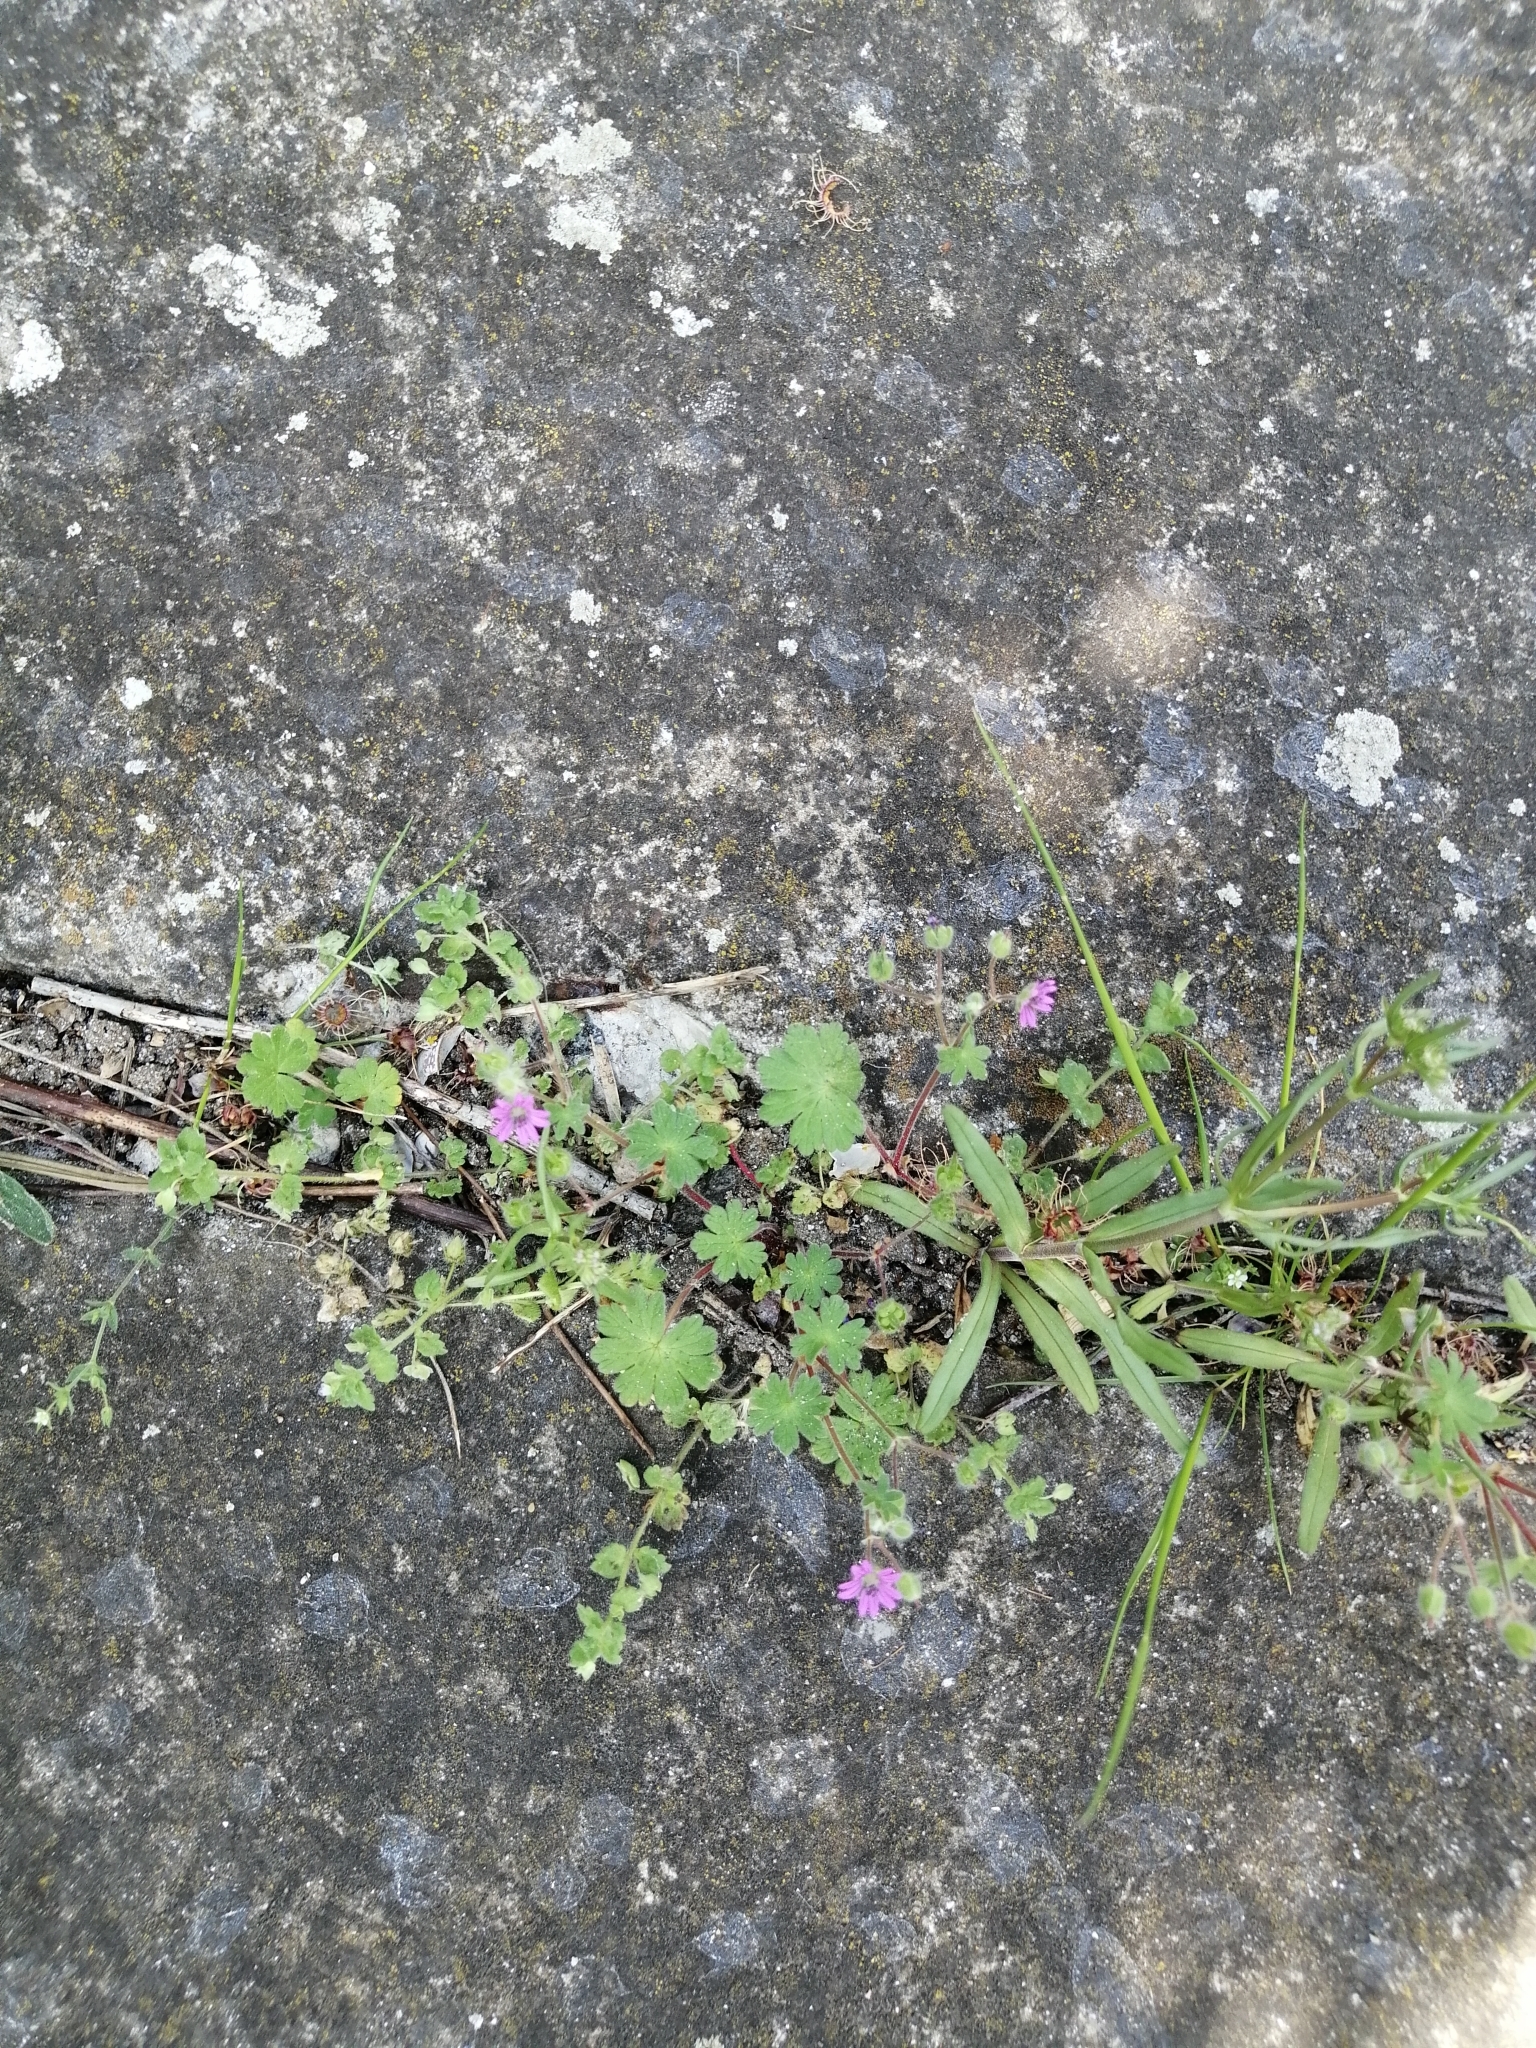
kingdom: Plantae
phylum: Tracheophyta
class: Magnoliopsida
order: Geraniales
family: Geraniaceae
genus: Geranium
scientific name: Geranium molle
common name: Dove's-foot crane's-bill
